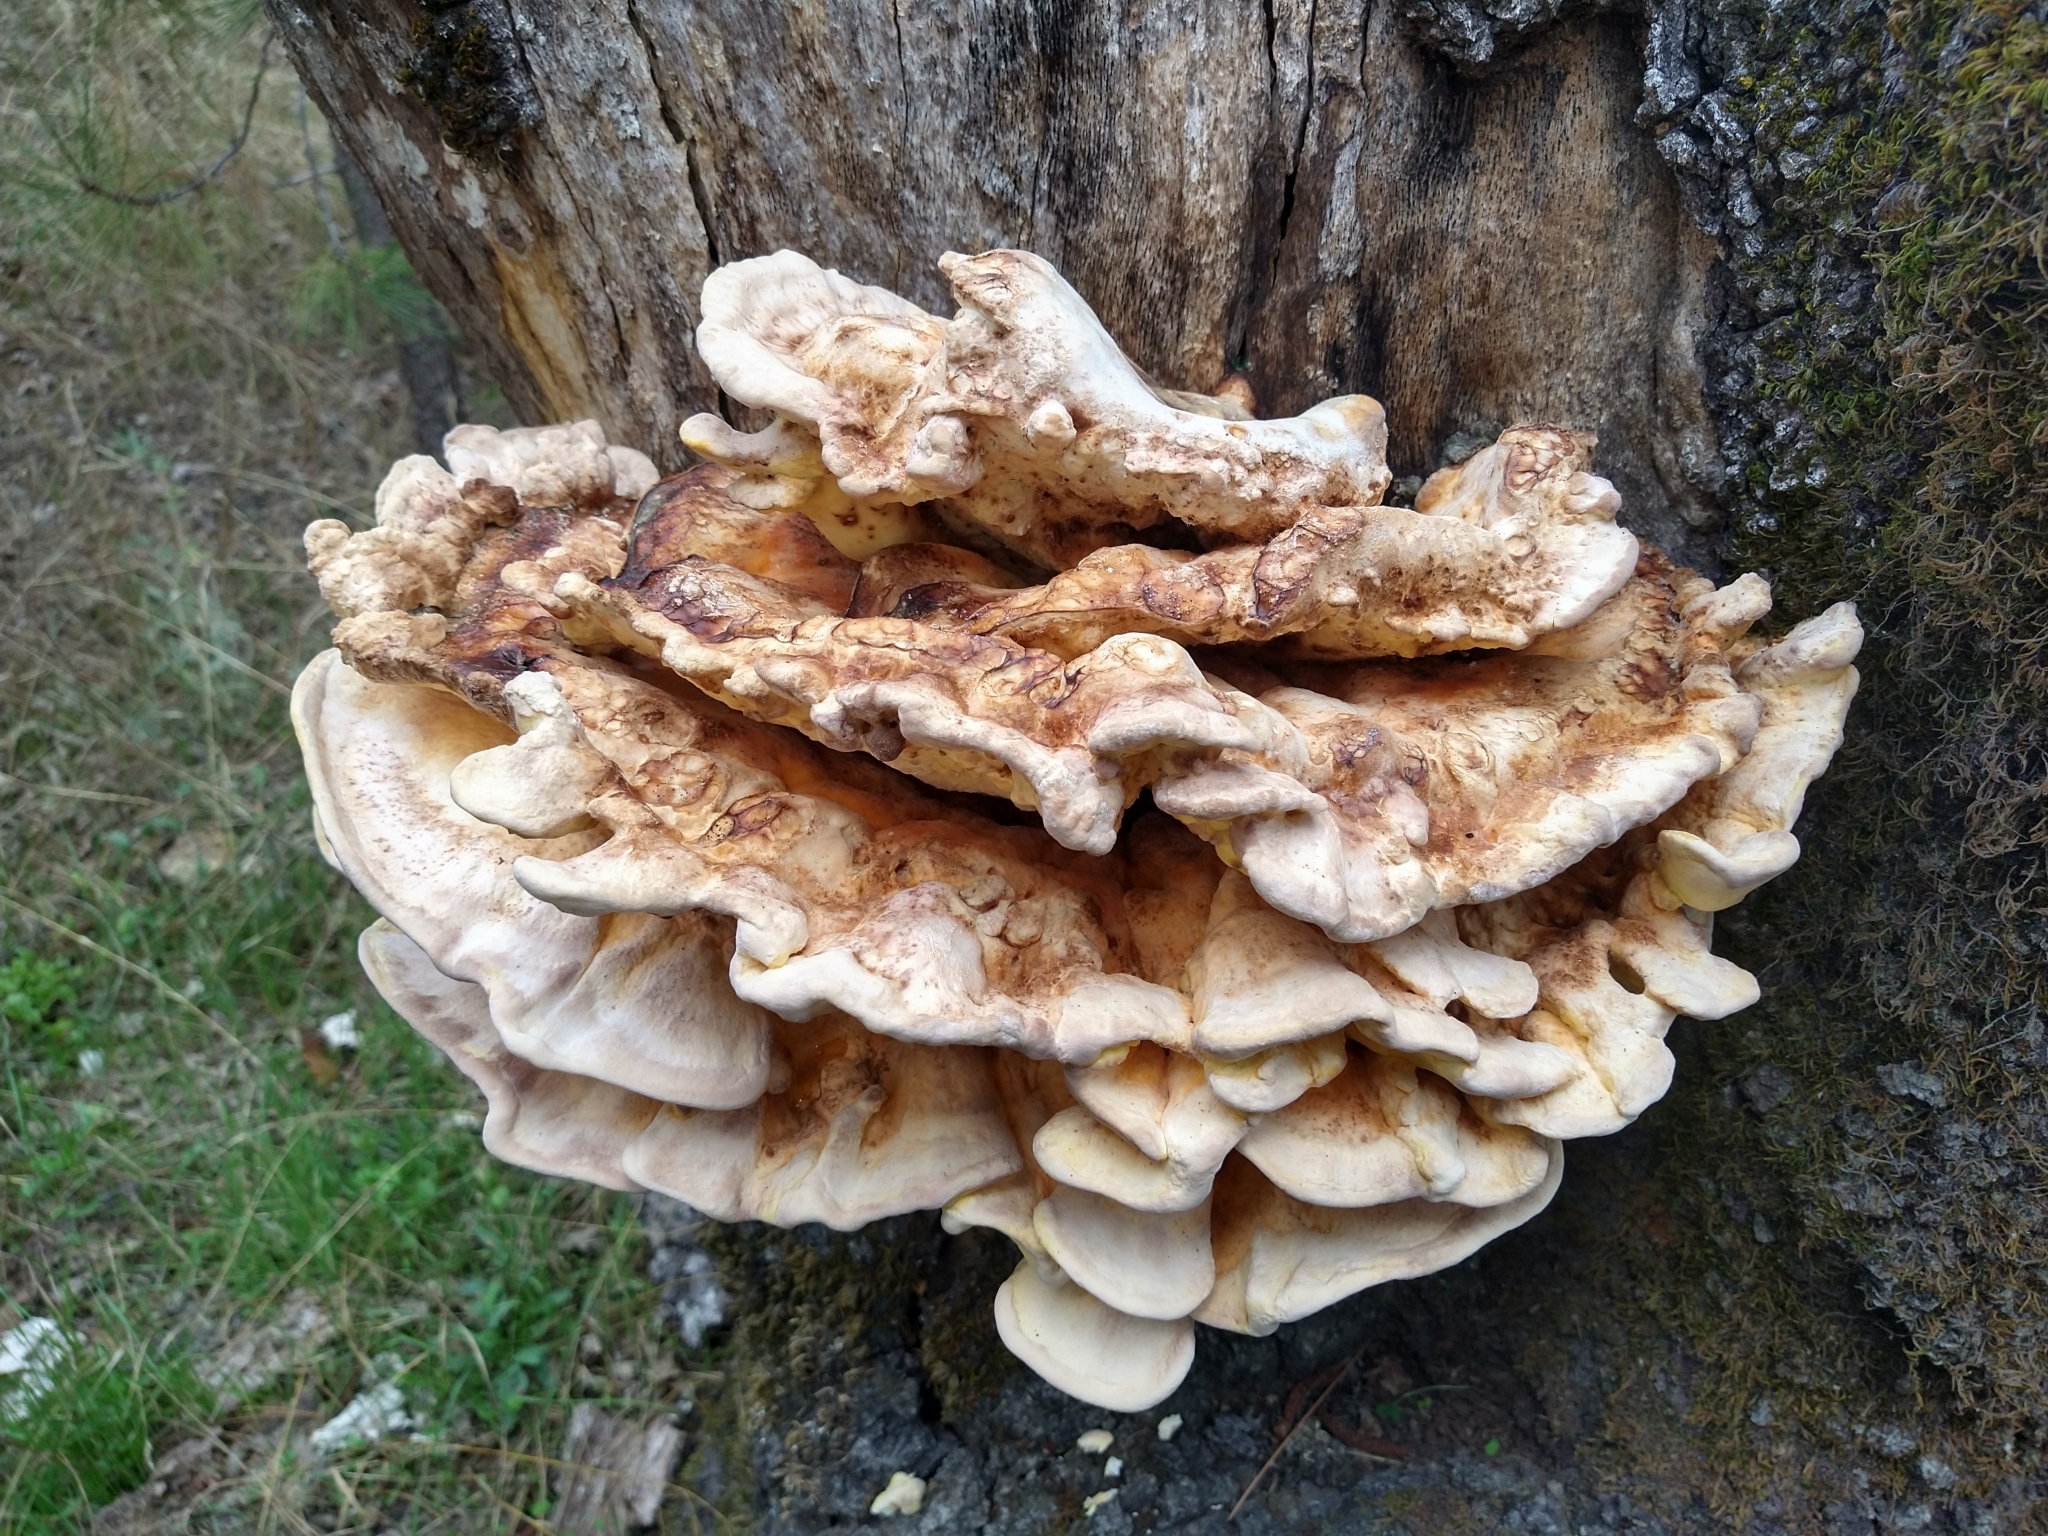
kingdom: Fungi
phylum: Basidiomycota
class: Agaricomycetes
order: Polyporales
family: Laetiporaceae
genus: Laetiporus
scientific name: Laetiporus gilbertsonii
